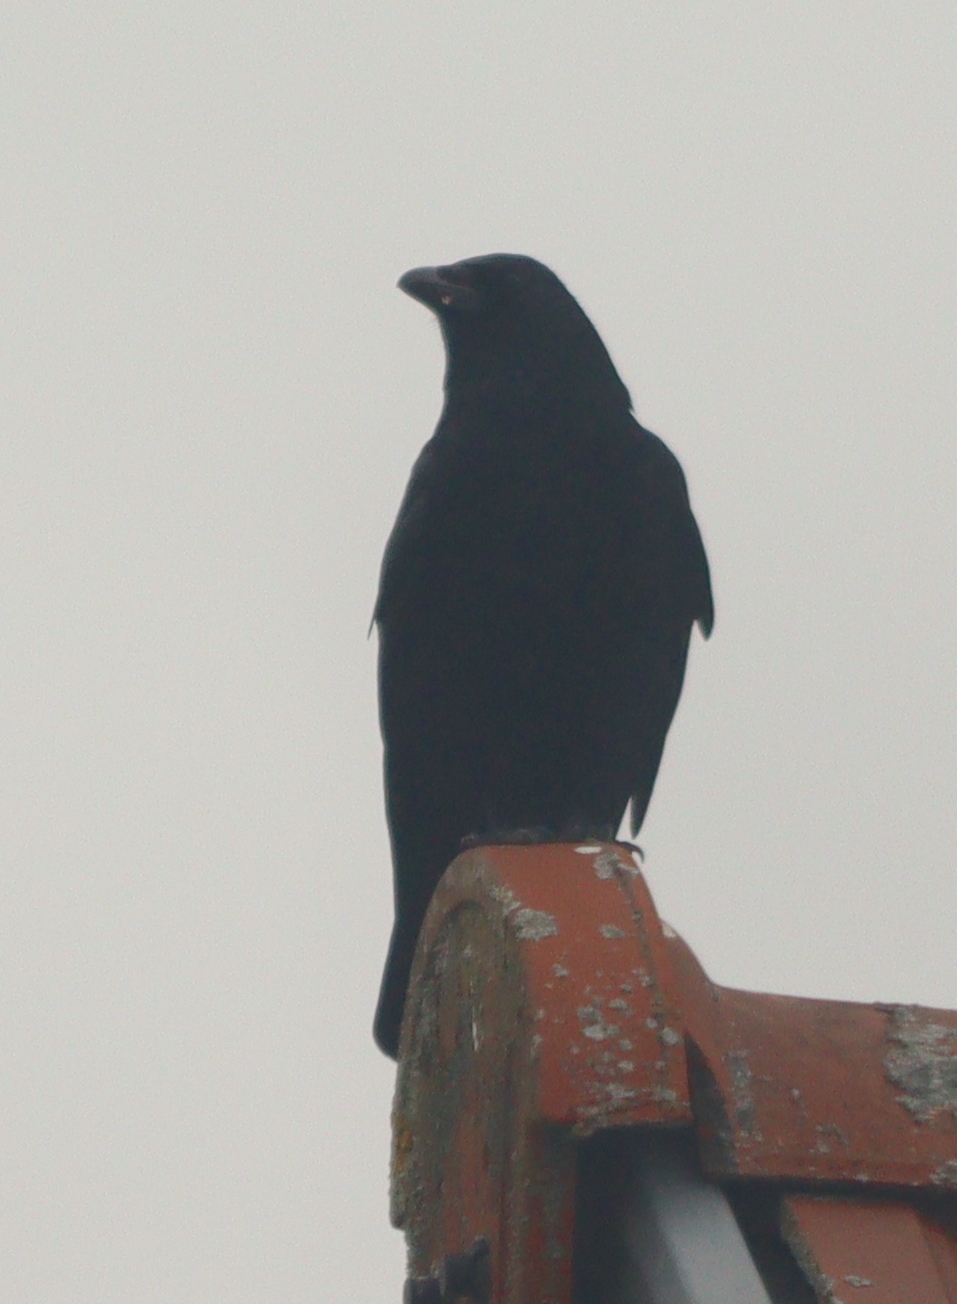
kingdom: Animalia
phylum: Chordata
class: Aves
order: Passeriformes
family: Corvidae
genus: Corvus
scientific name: Corvus corone
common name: Carrion crow
